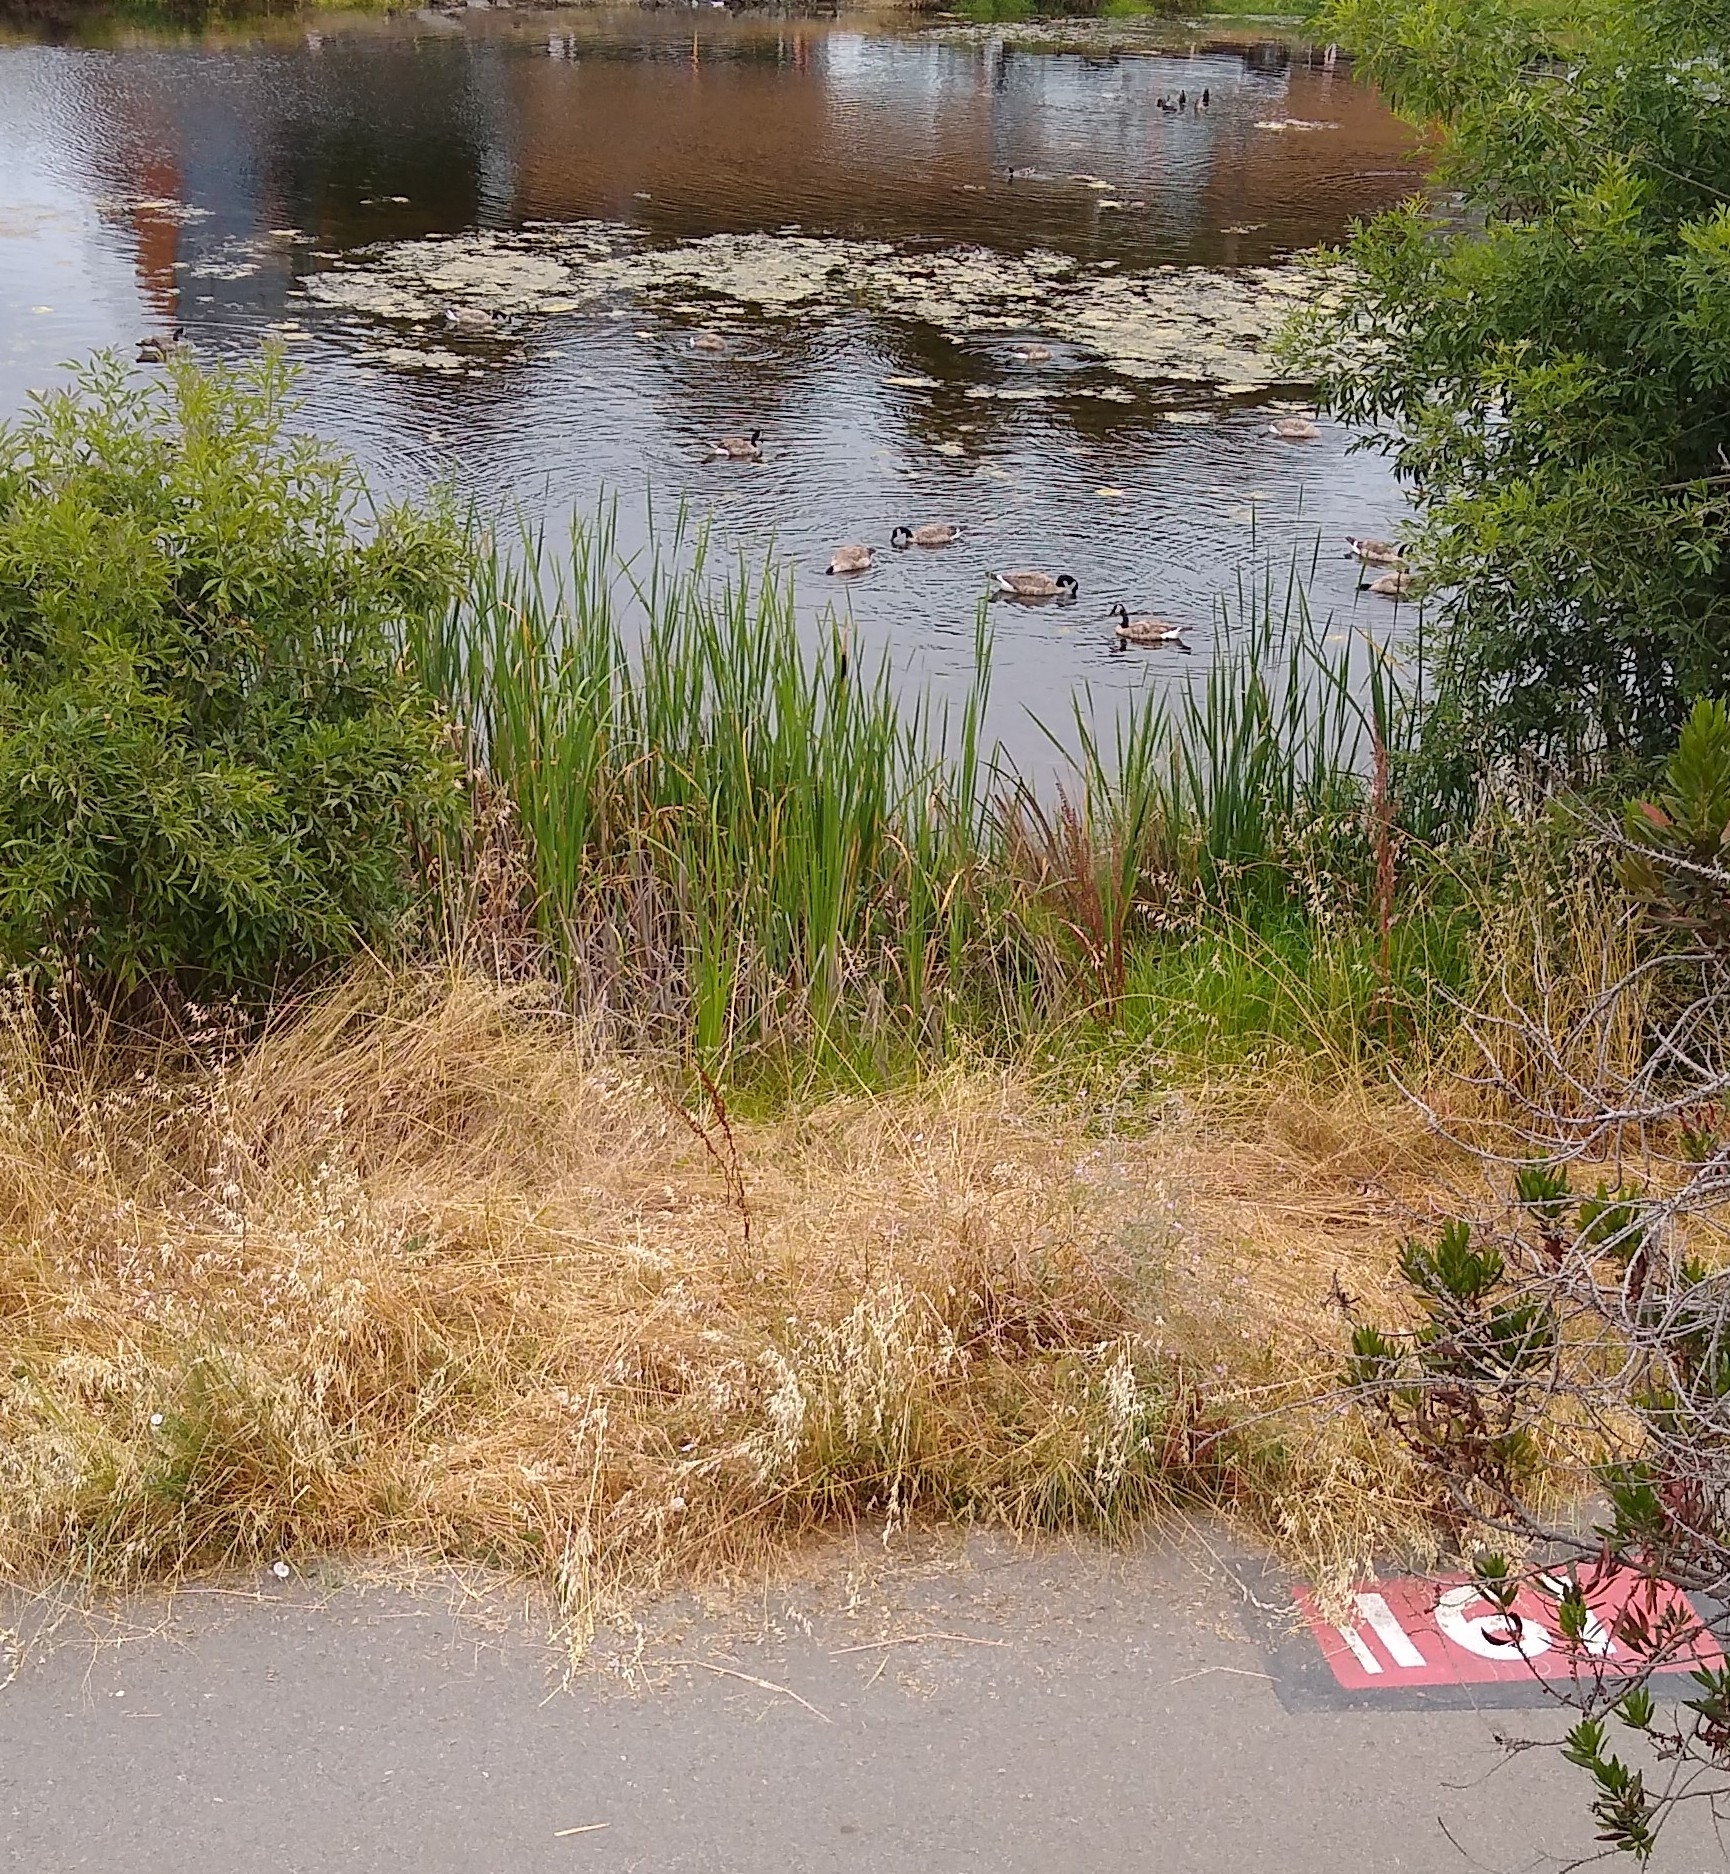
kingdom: Animalia
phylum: Chordata
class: Aves
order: Anseriformes
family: Anatidae
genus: Branta
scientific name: Branta canadensis
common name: Canada goose
